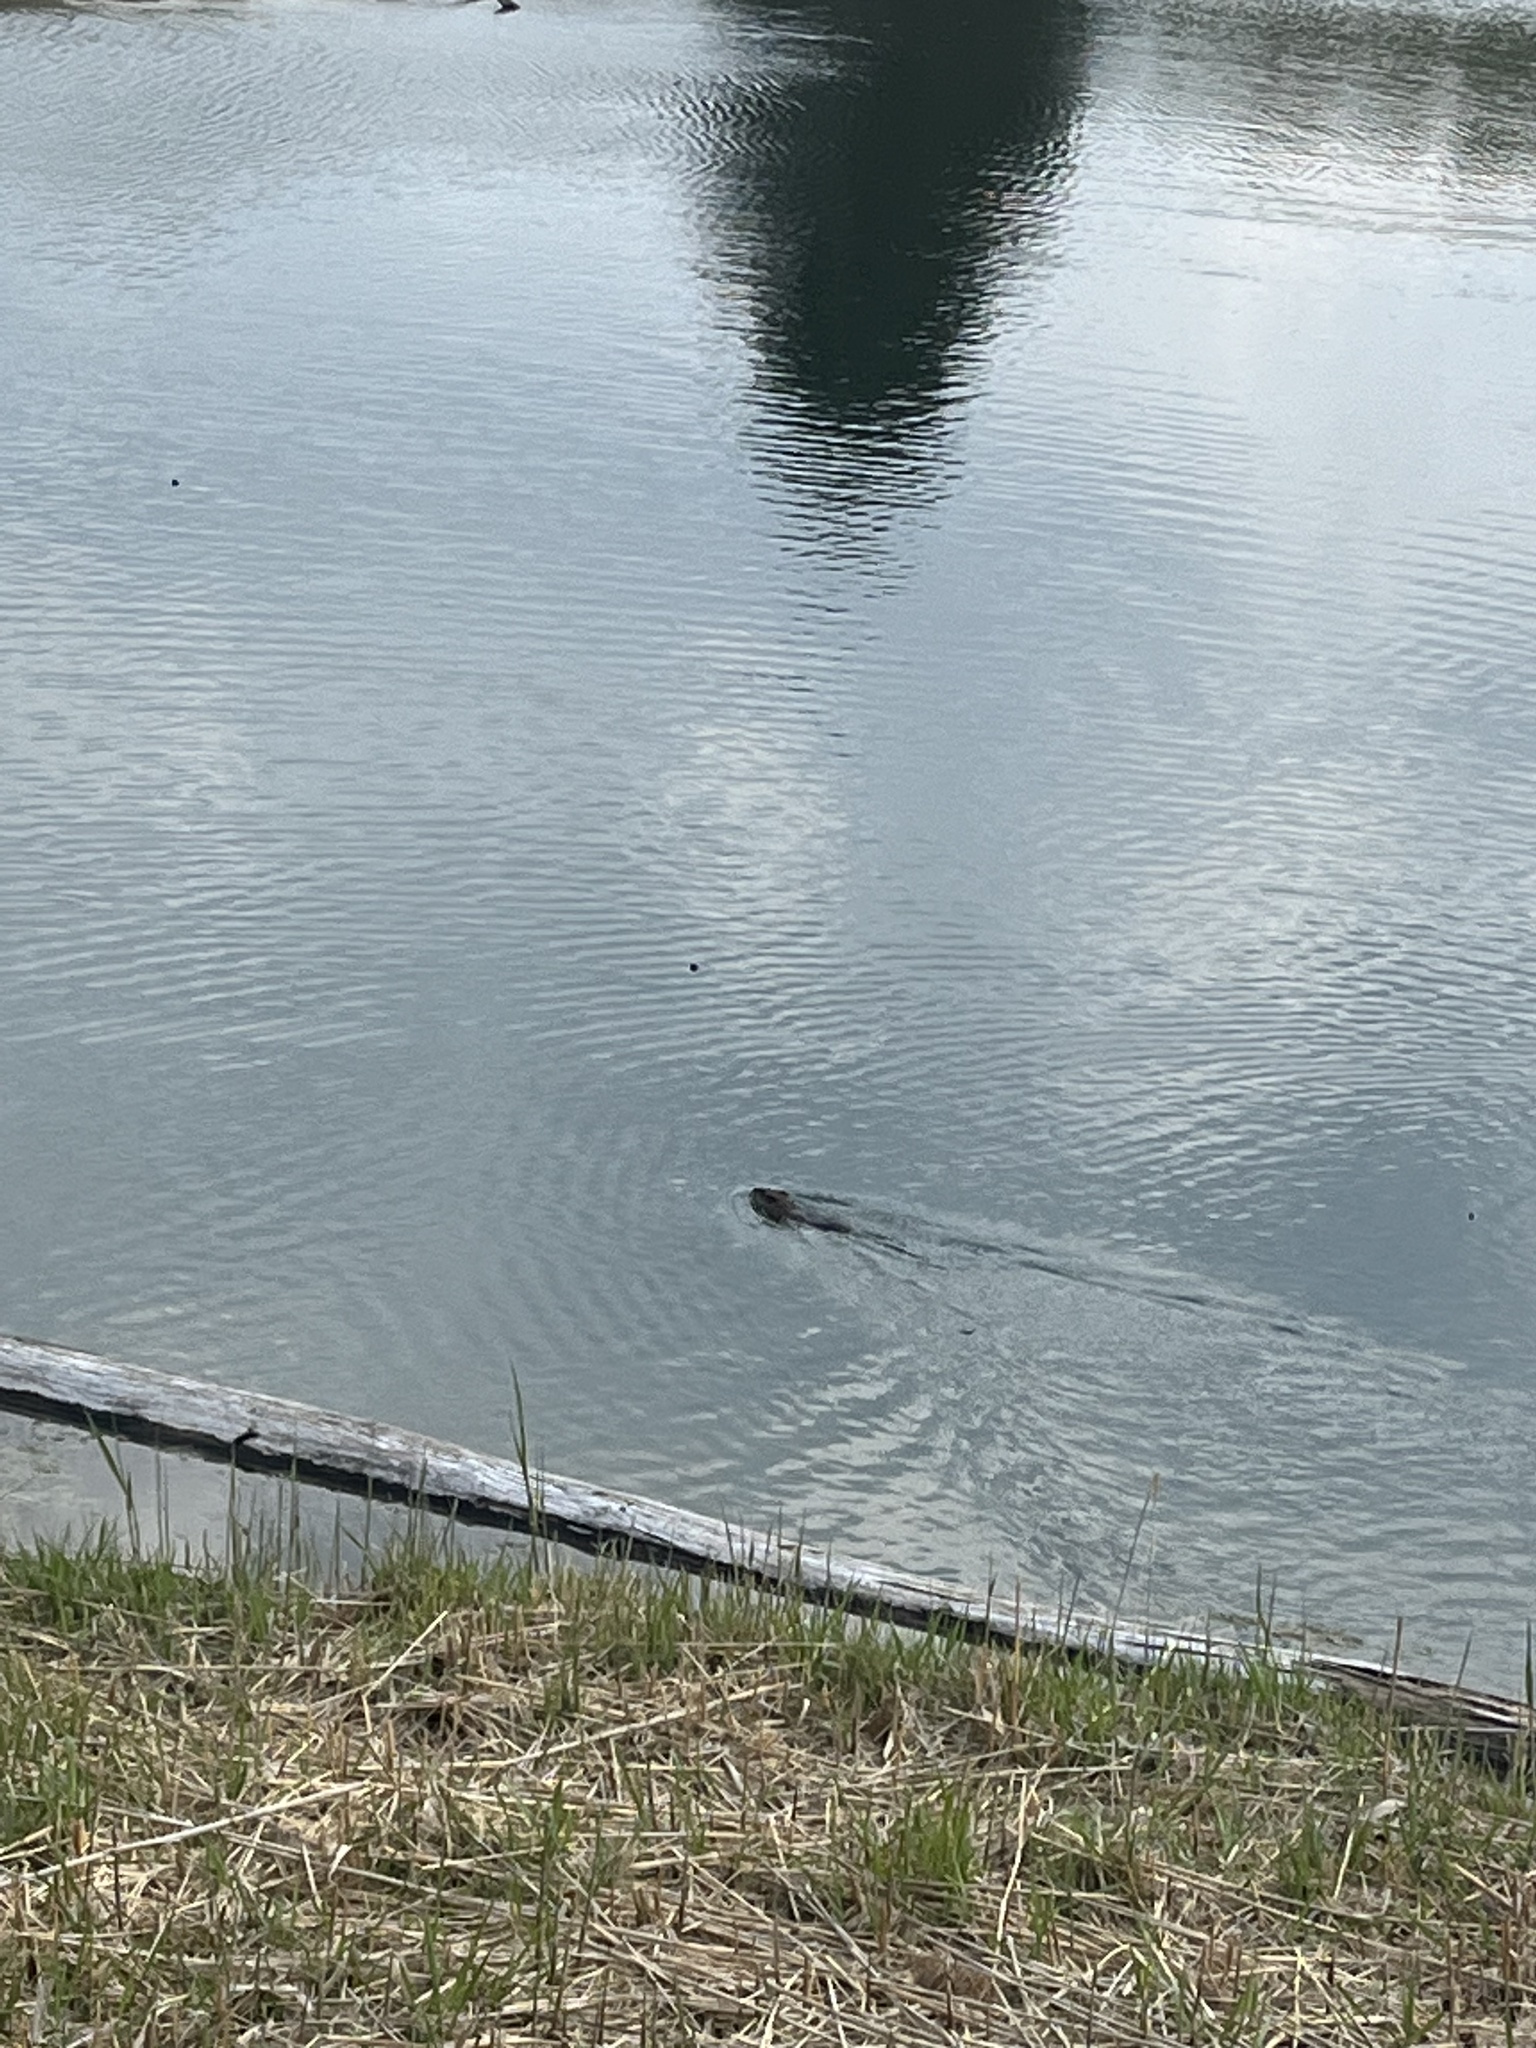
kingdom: Animalia
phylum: Chordata
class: Mammalia
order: Rodentia
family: Cricetidae
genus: Ondatra
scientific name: Ondatra zibethicus
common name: Muskrat
